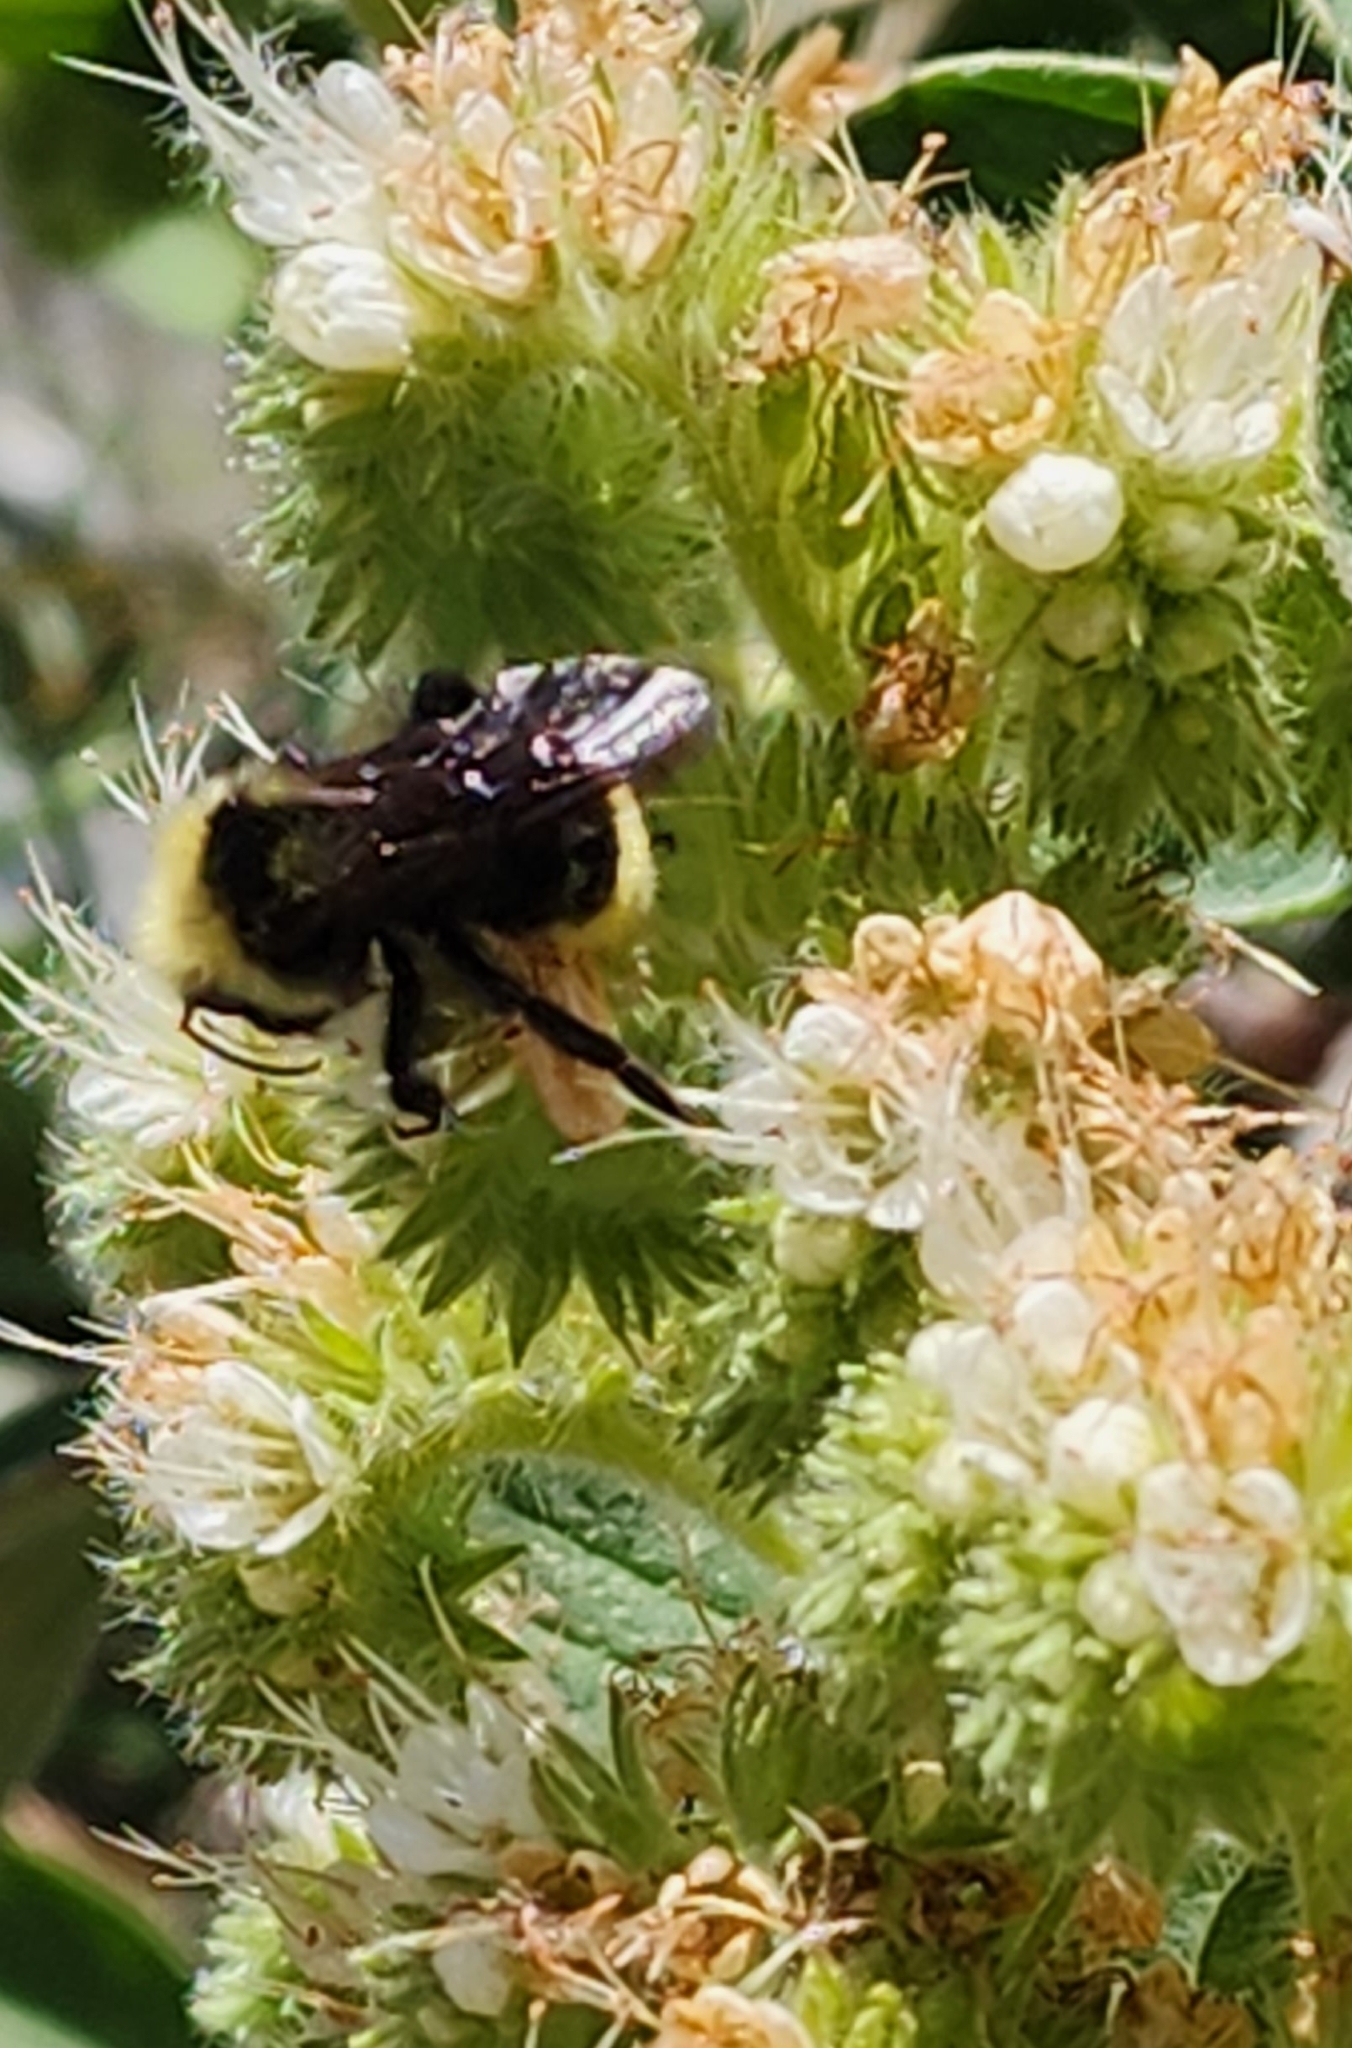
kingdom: Animalia
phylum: Arthropoda
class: Insecta
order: Hymenoptera
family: Apidae
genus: Bombus
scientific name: Bombus vosnesenskii
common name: Vosnesensky bumble bee
